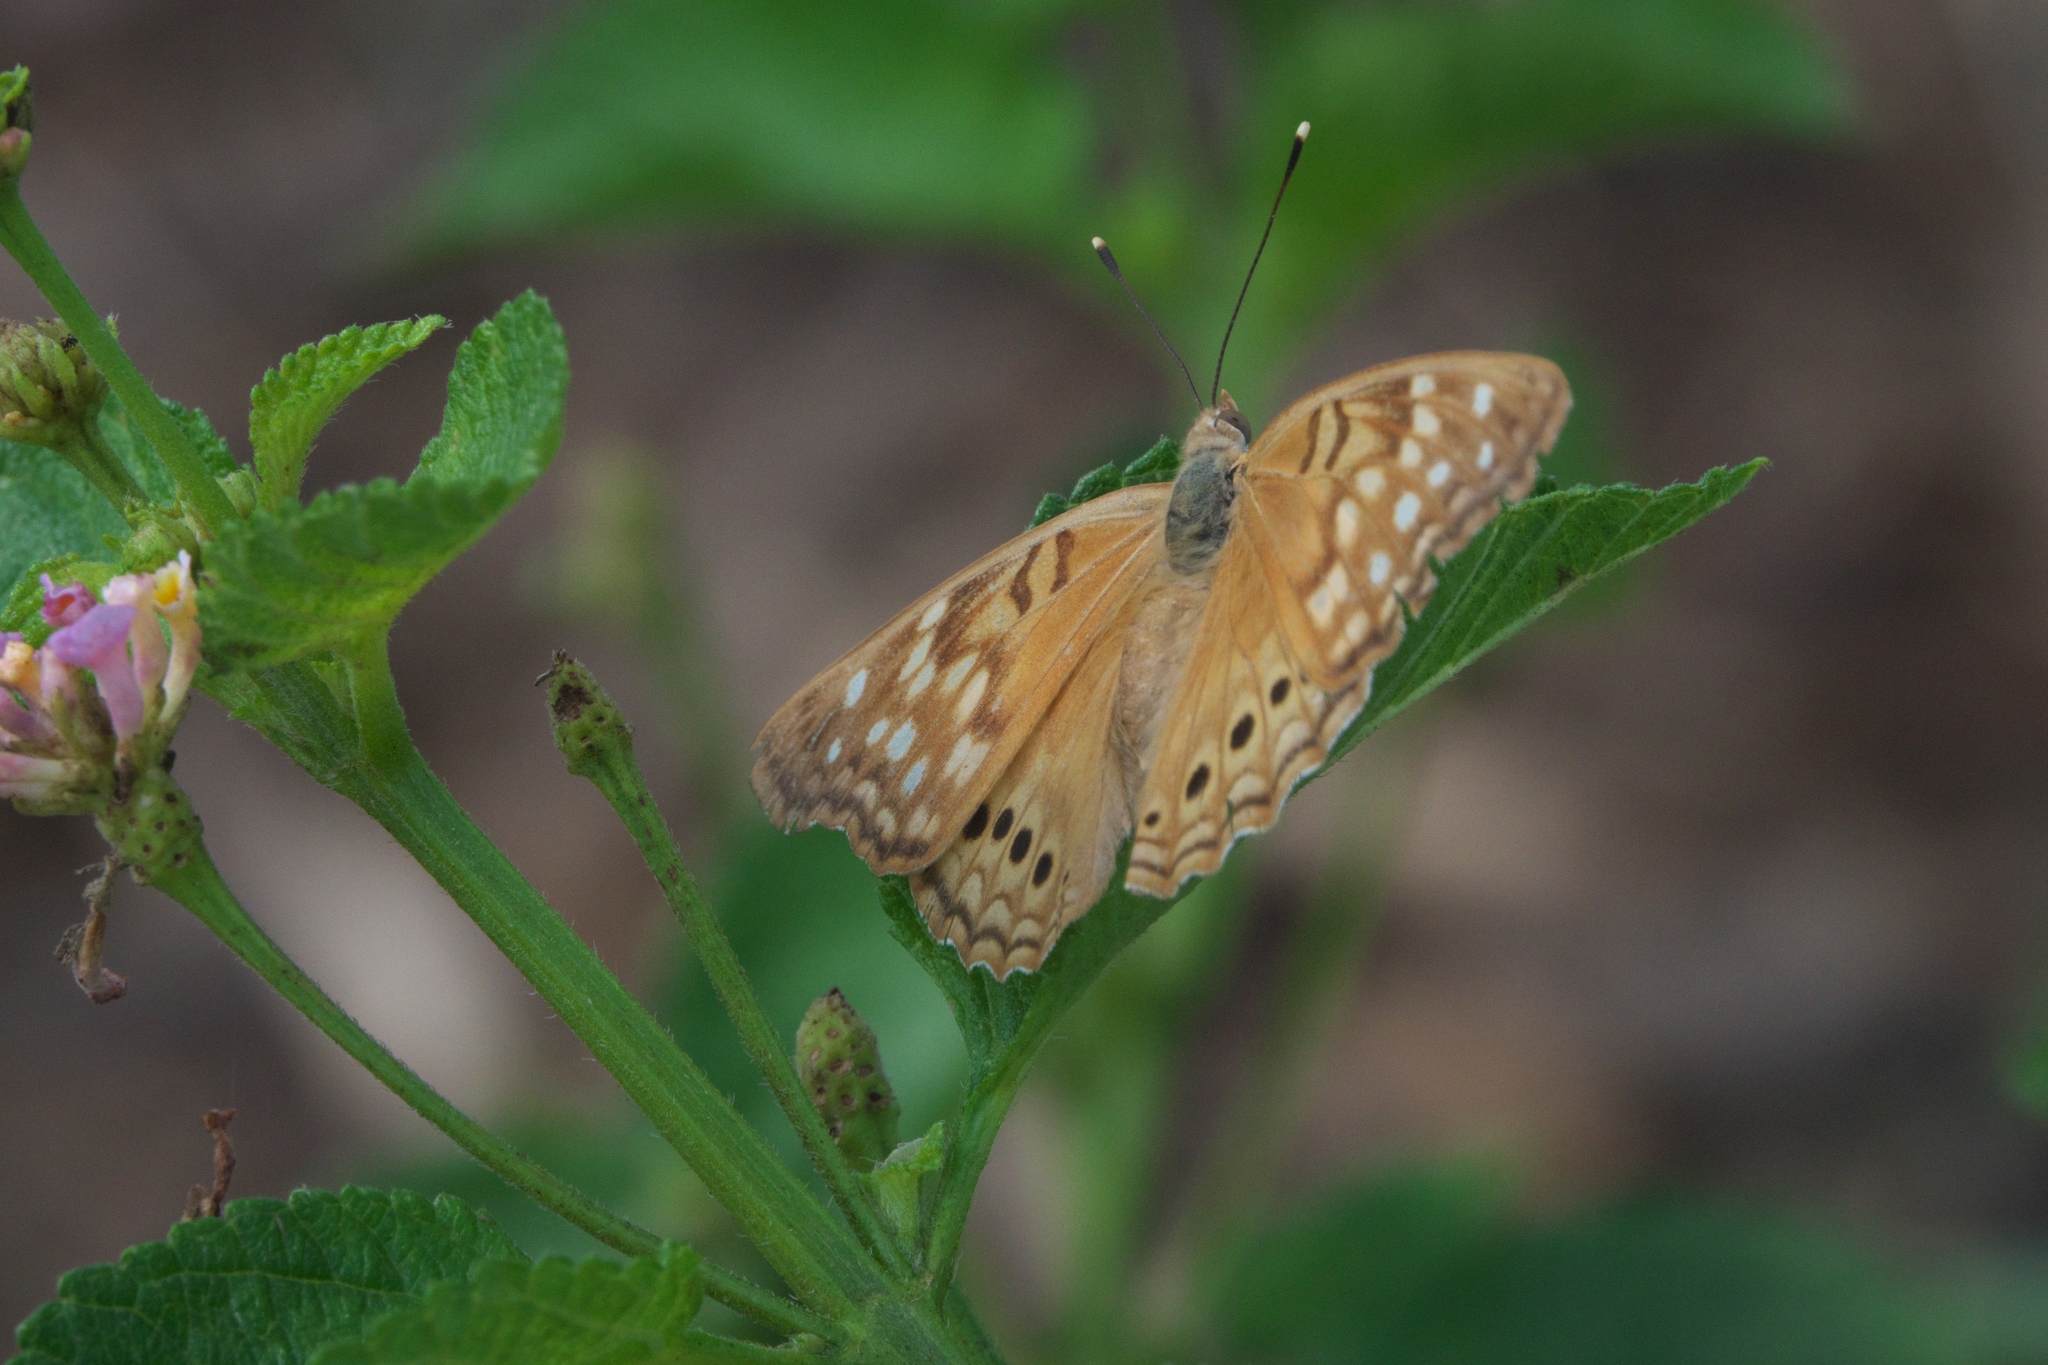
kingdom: Animalia
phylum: Arthropoda
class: Insecta
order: Lepidoptera
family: Nymphalidae
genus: Asterocampa
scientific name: Asterocampa clyton
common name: Tawny emperor
